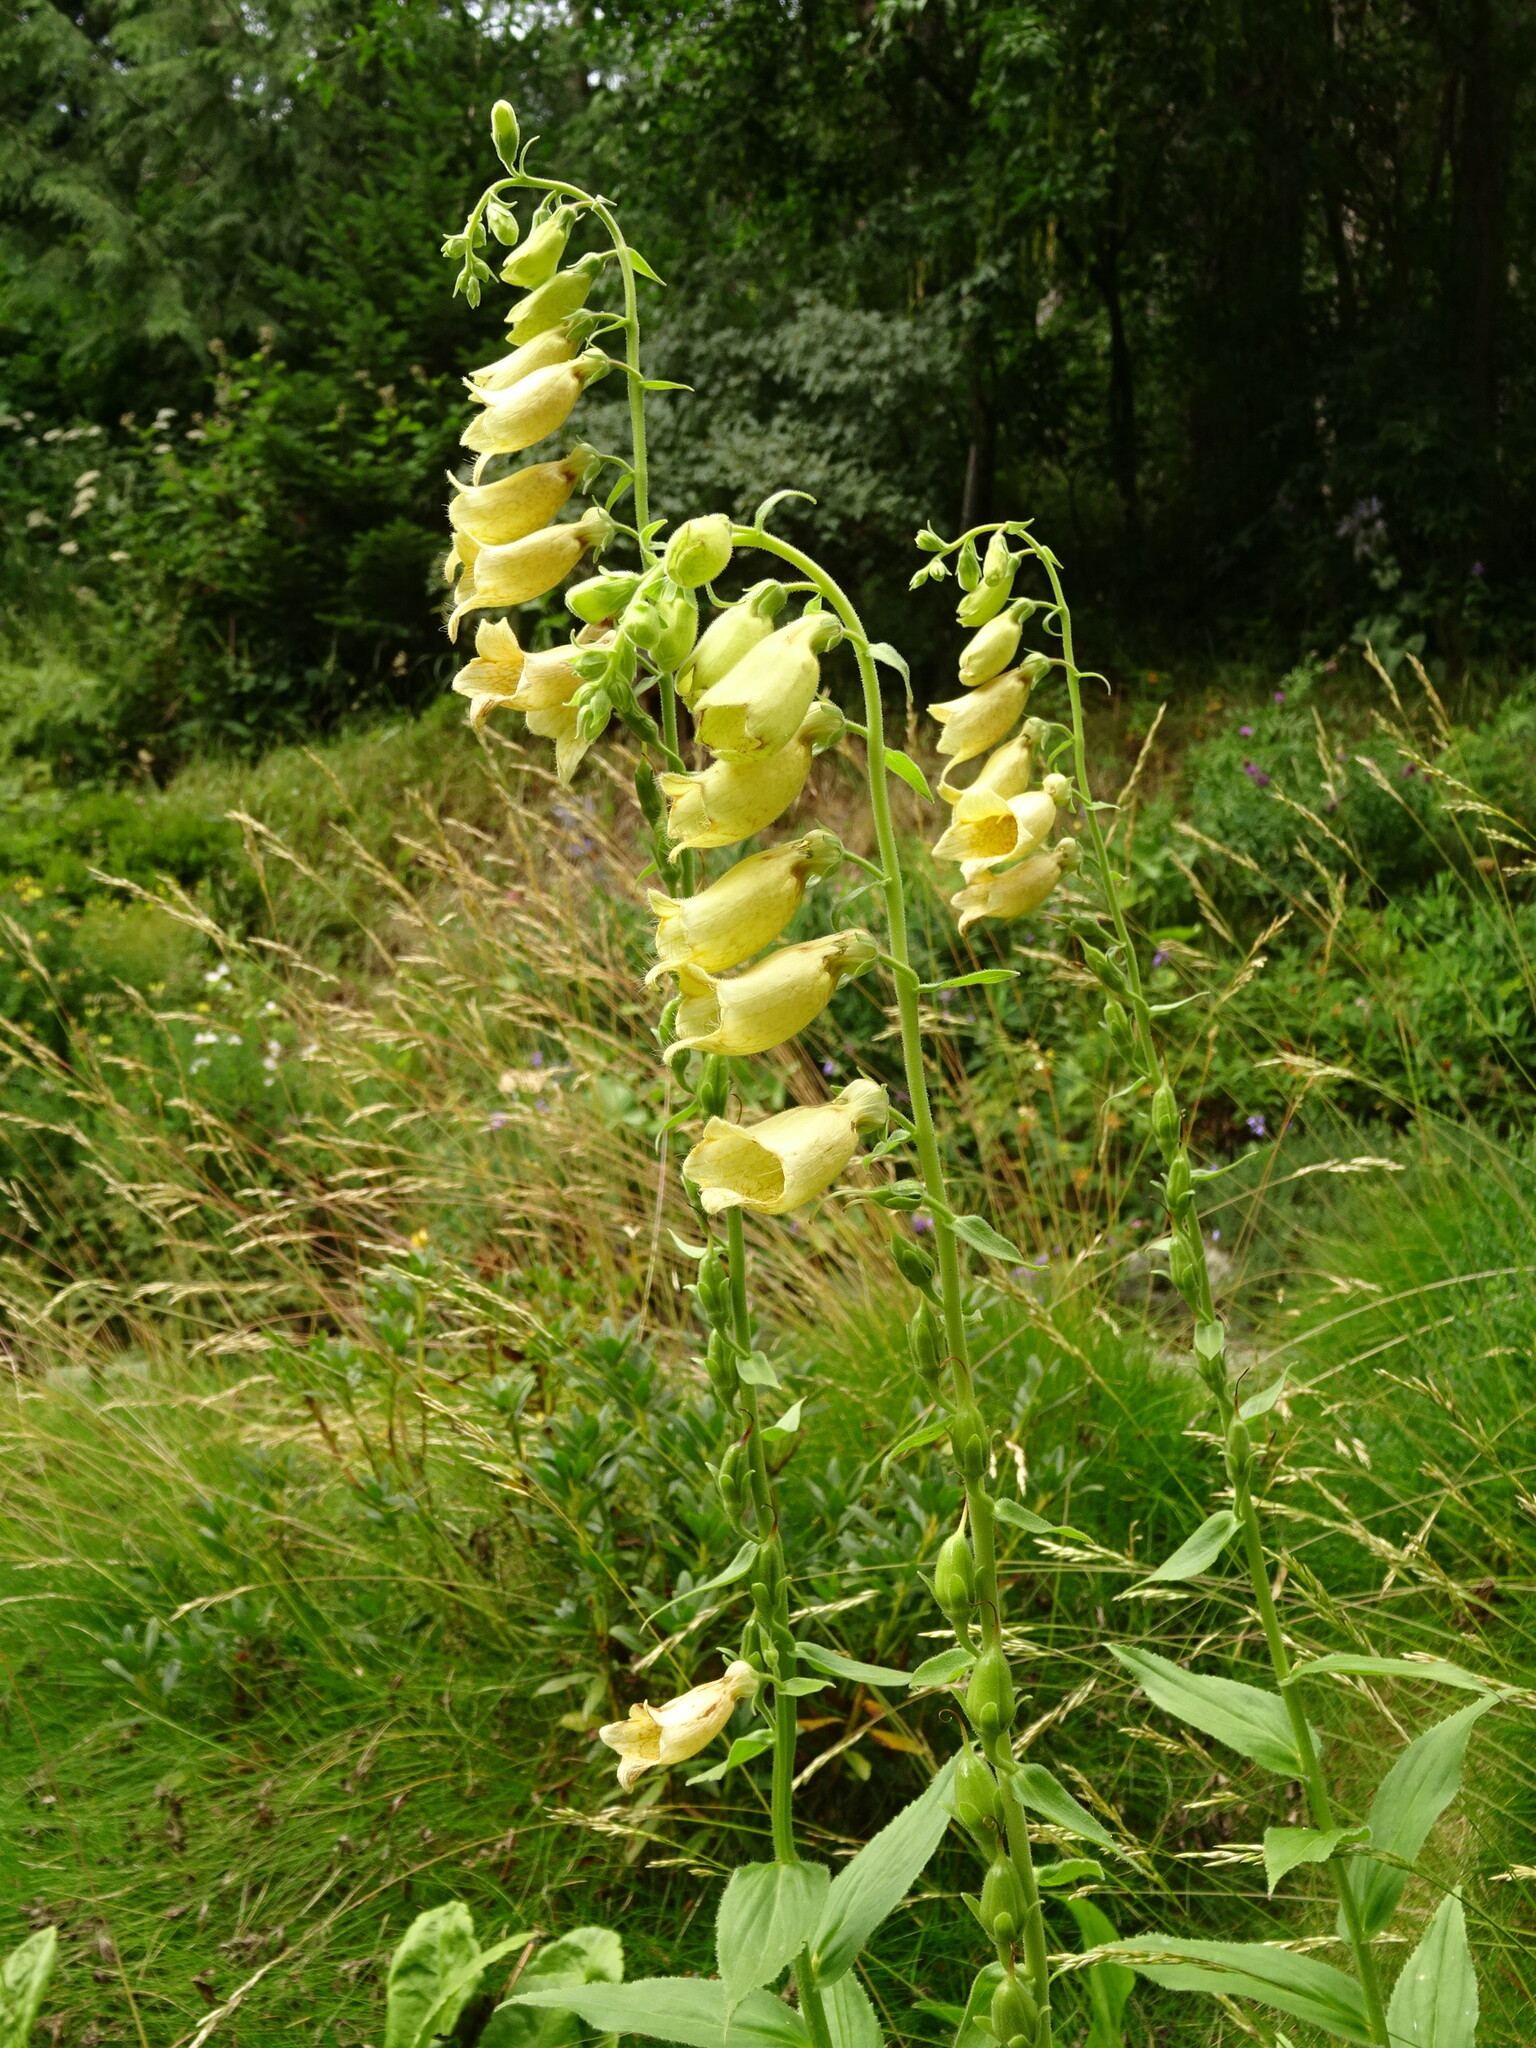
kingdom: Plantae
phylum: Tracheophyta
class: Magnoliopsida
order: Lamiales
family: Plantaginaceae
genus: Digitalis
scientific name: Digitalis grandiflora
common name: Yellow foxglove
